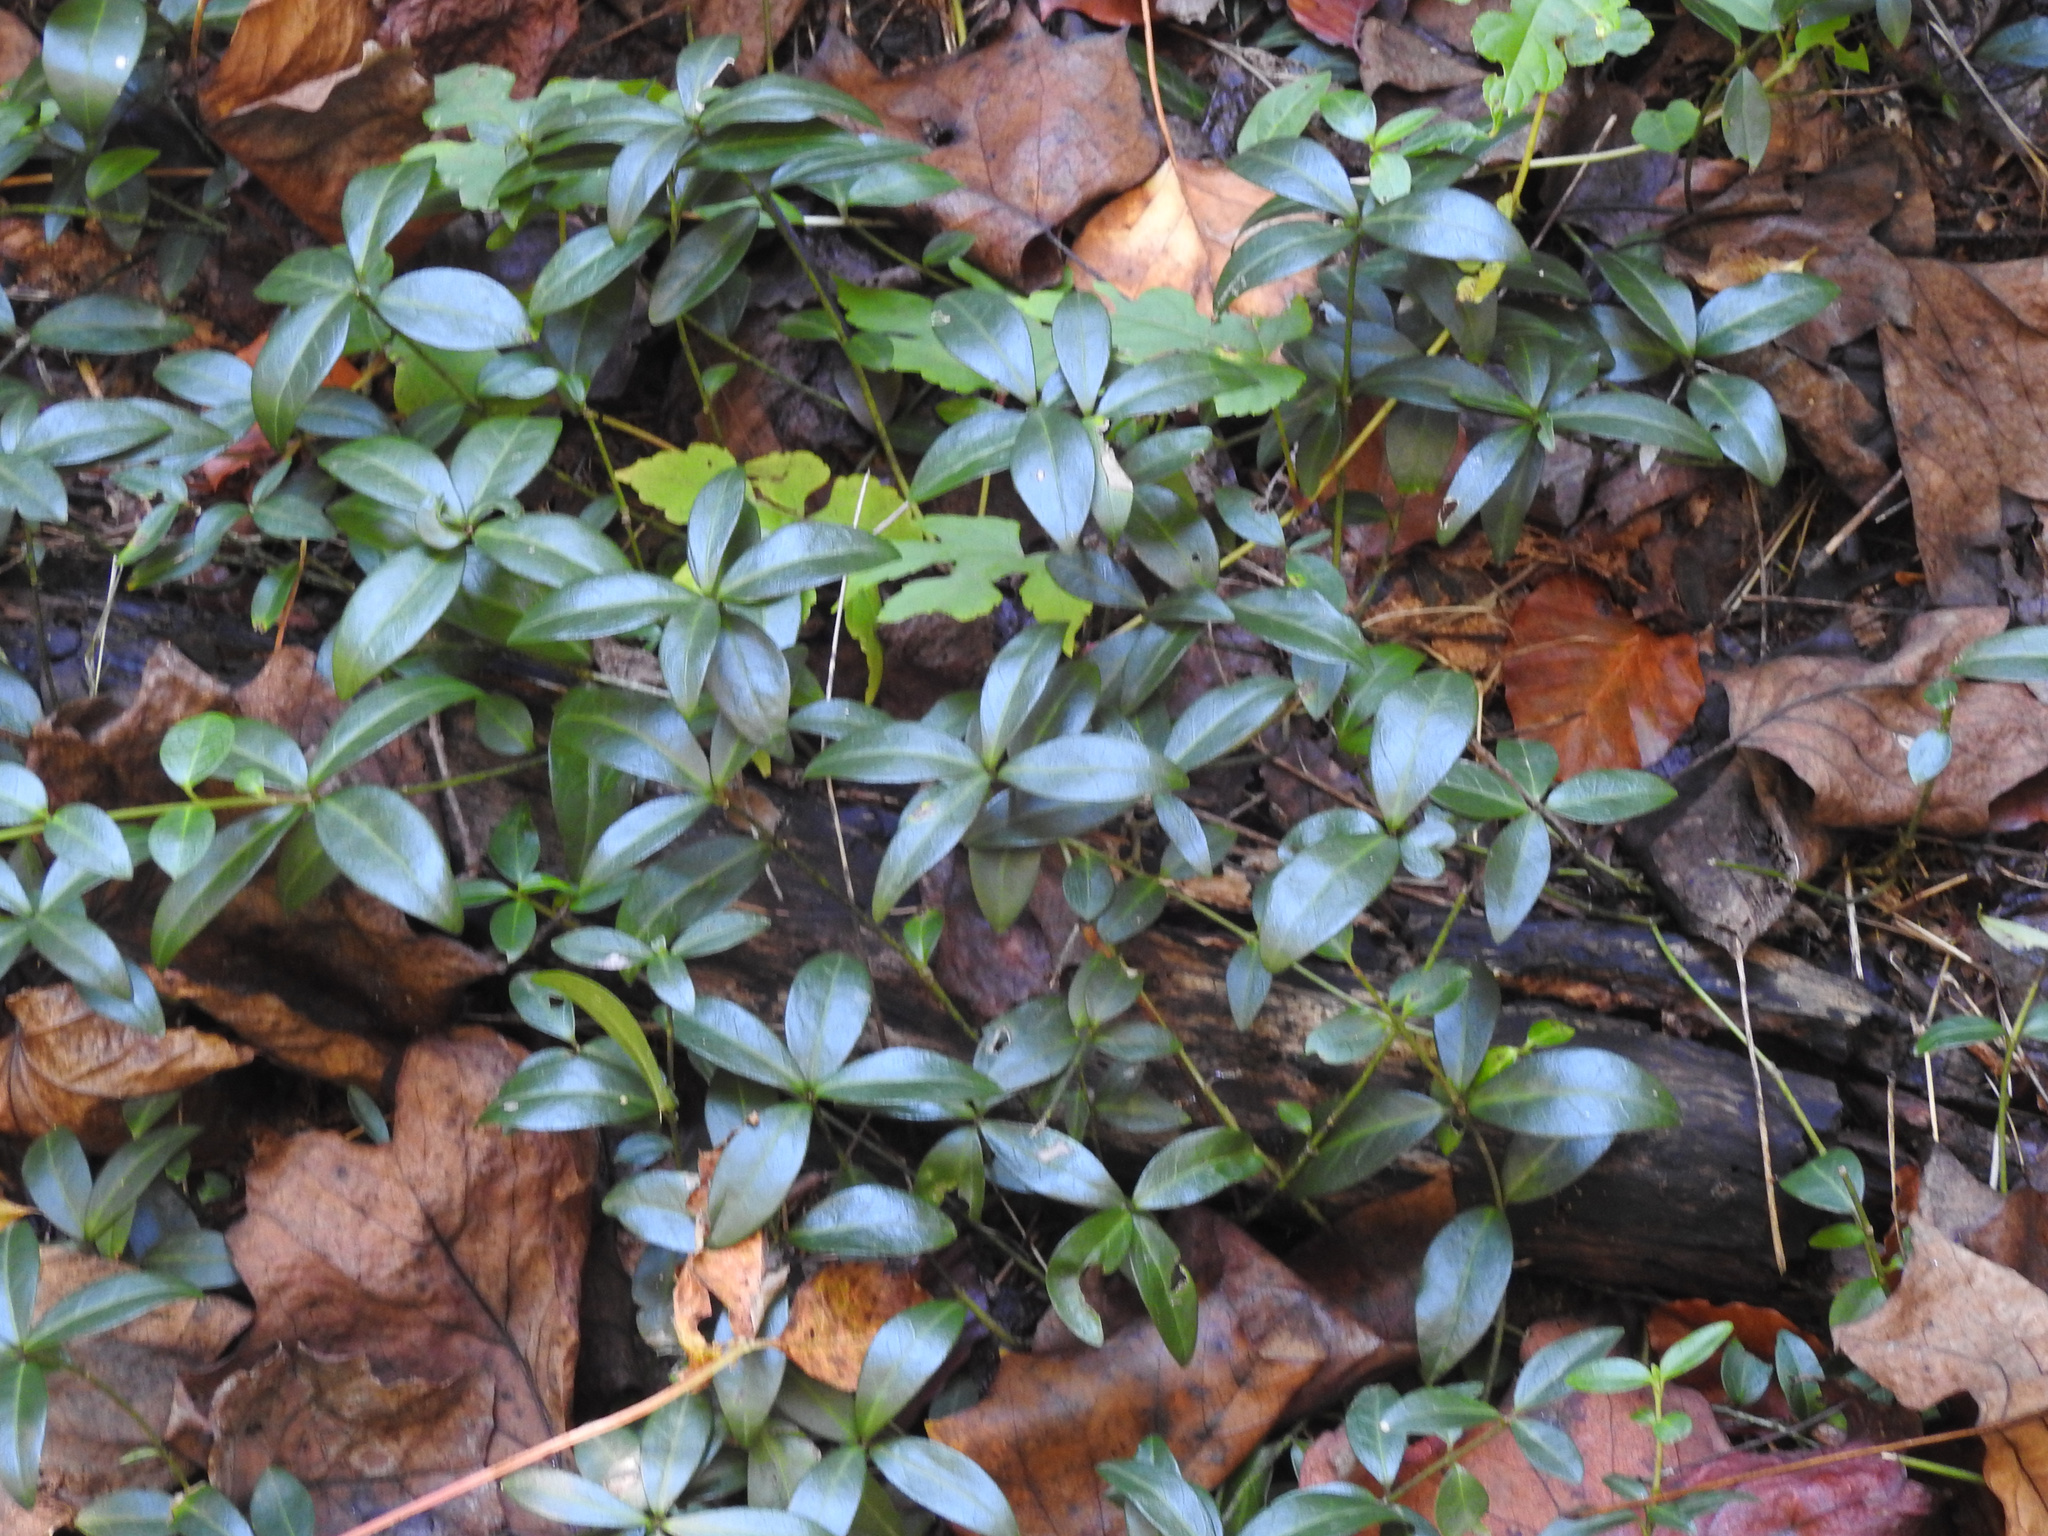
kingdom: Plantae
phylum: Tracheophyta
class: Magnoliopsida
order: Gentianales
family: Apocynaceae
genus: Vinca
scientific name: Vinca minor
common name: Lesser periwinkle
